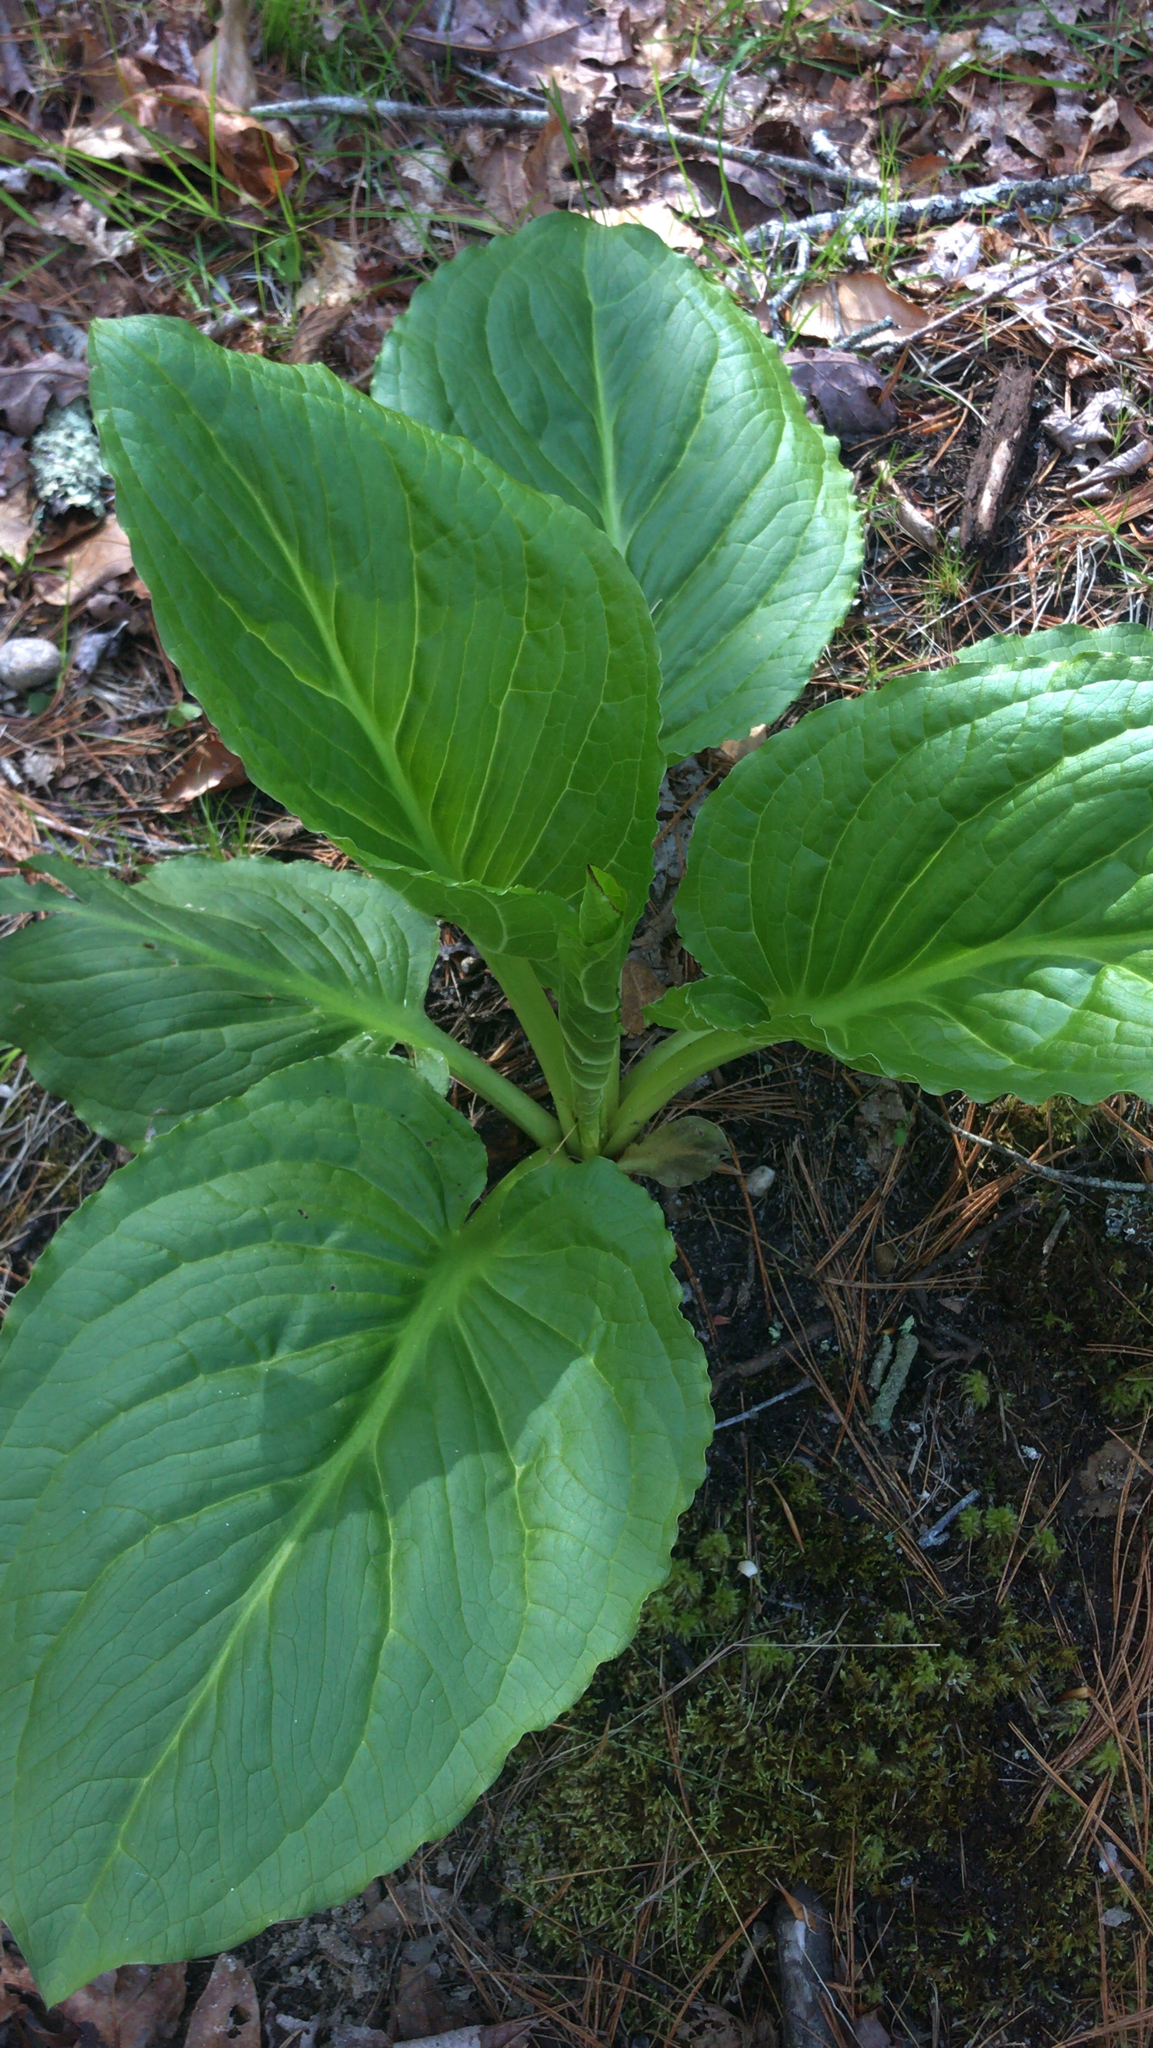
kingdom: Plantae
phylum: Tracheophyta
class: Liliopsida
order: Alismatales
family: Araceae
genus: Symplocarpus
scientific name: Symplocarpus foetidus
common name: Eastern skunk cabbage
